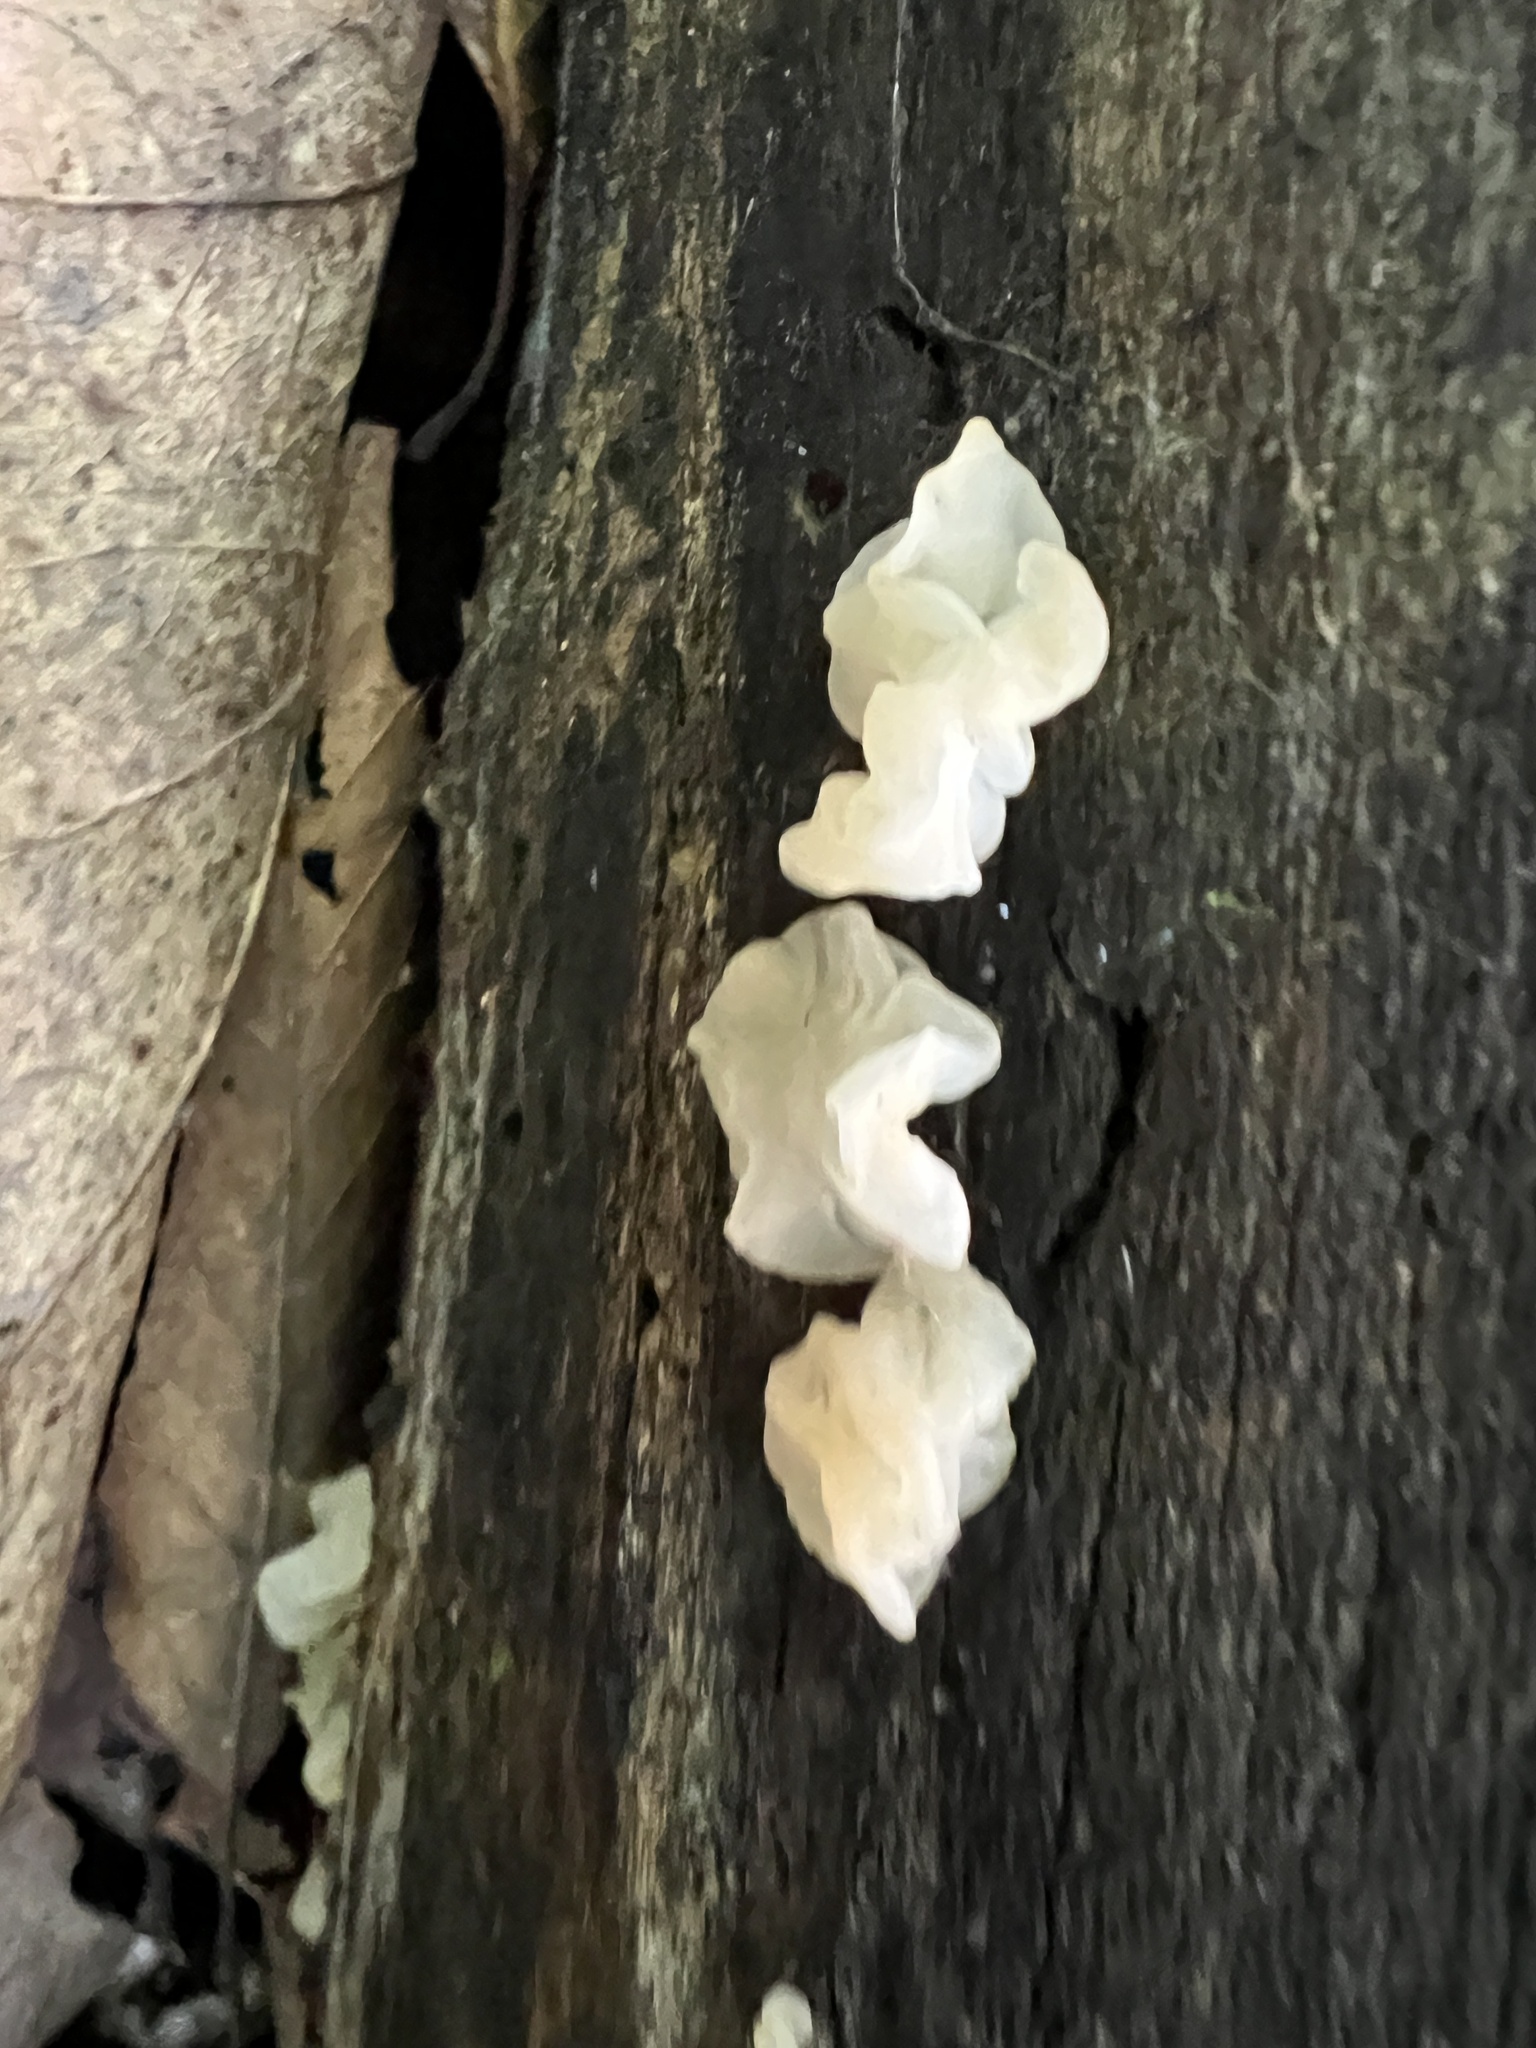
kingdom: Fungi
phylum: Basidiomycota
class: Agaricomycetes
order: Auriculariales
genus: Ductifera
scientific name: Ductifera pululahuana
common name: White jelly fungus
